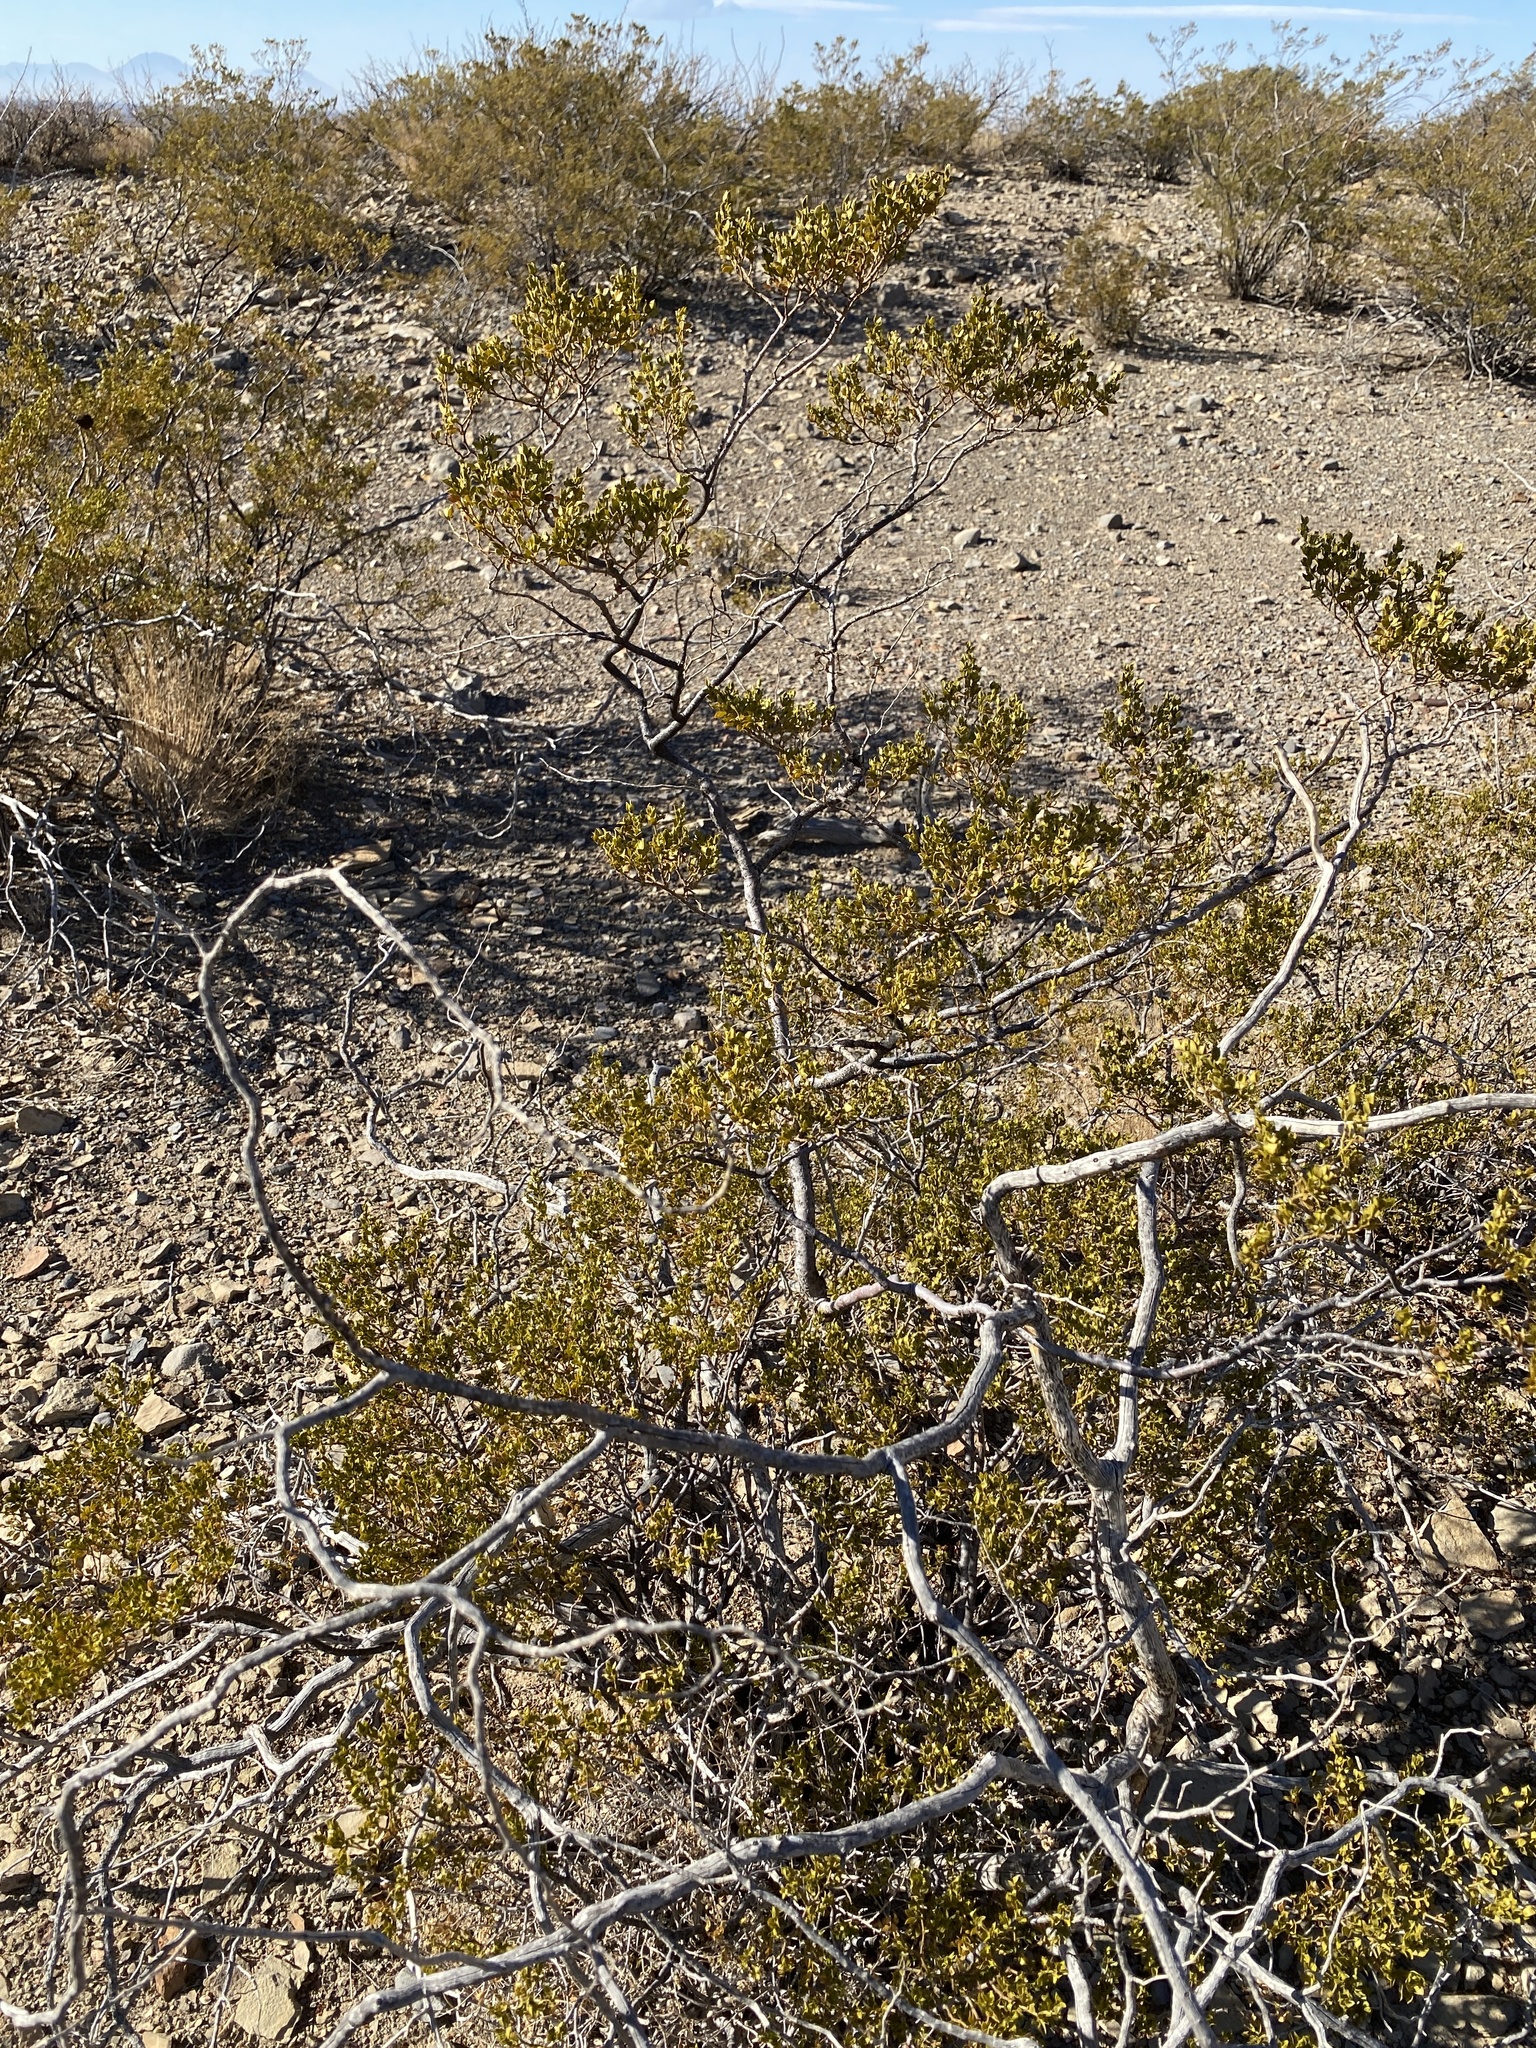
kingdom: Plantae
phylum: Tracheophyta
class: Magnoliopsida
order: Zygophyllales
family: Zygophyllaceae
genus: Larrea
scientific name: Larrea tridentata
